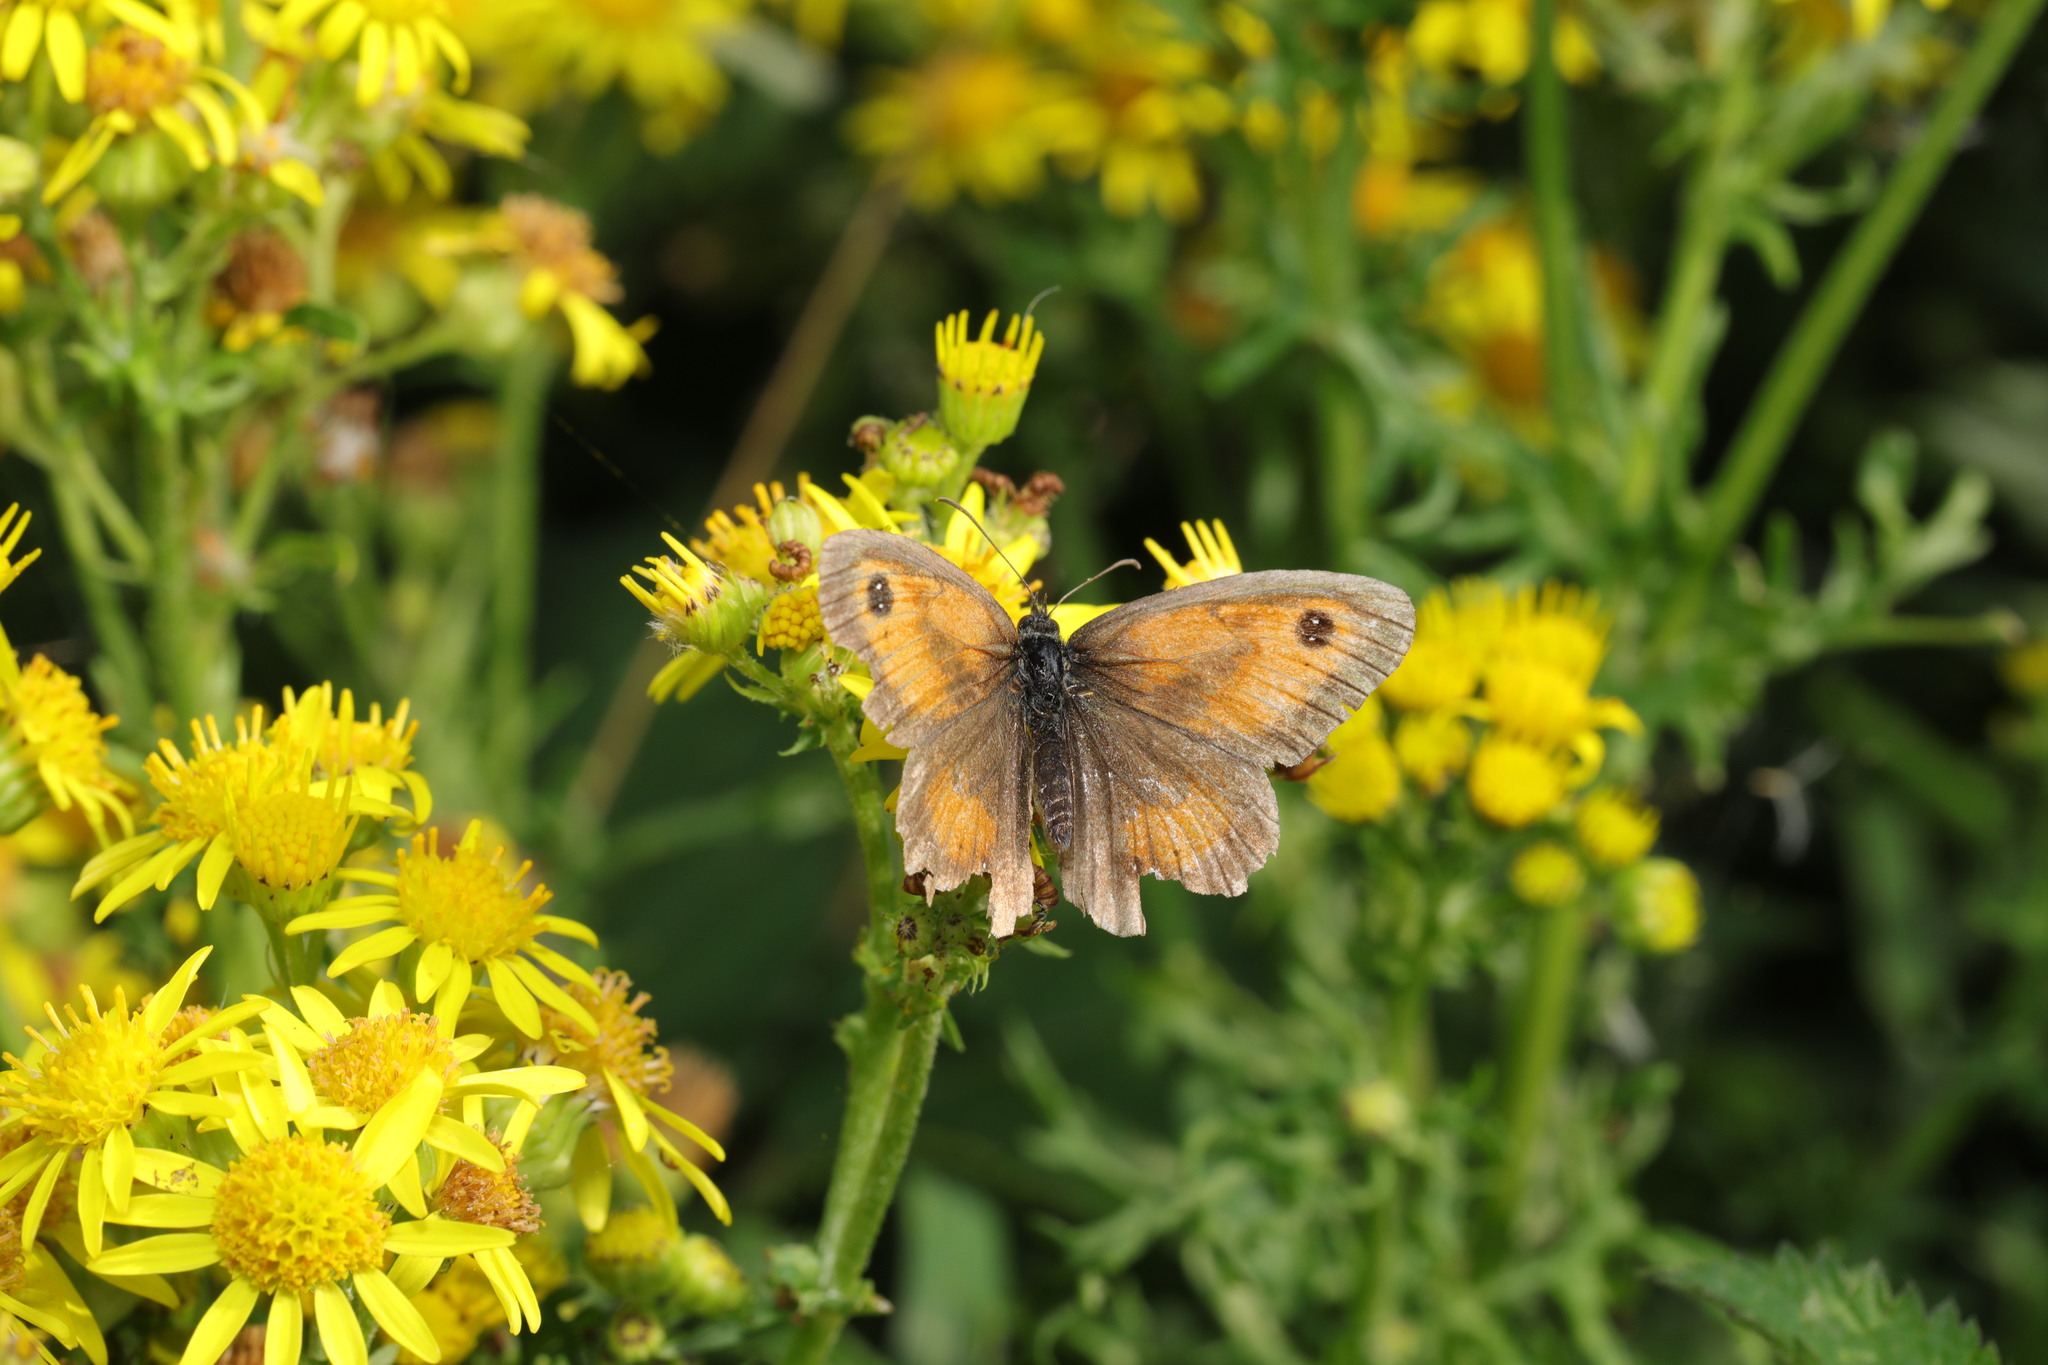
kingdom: Animalia
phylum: Arthropoda
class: Insecta
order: Lepidoptera
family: Nymphalidae
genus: Pyronia
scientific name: Pyronia tithonus
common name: Gatekeeper
